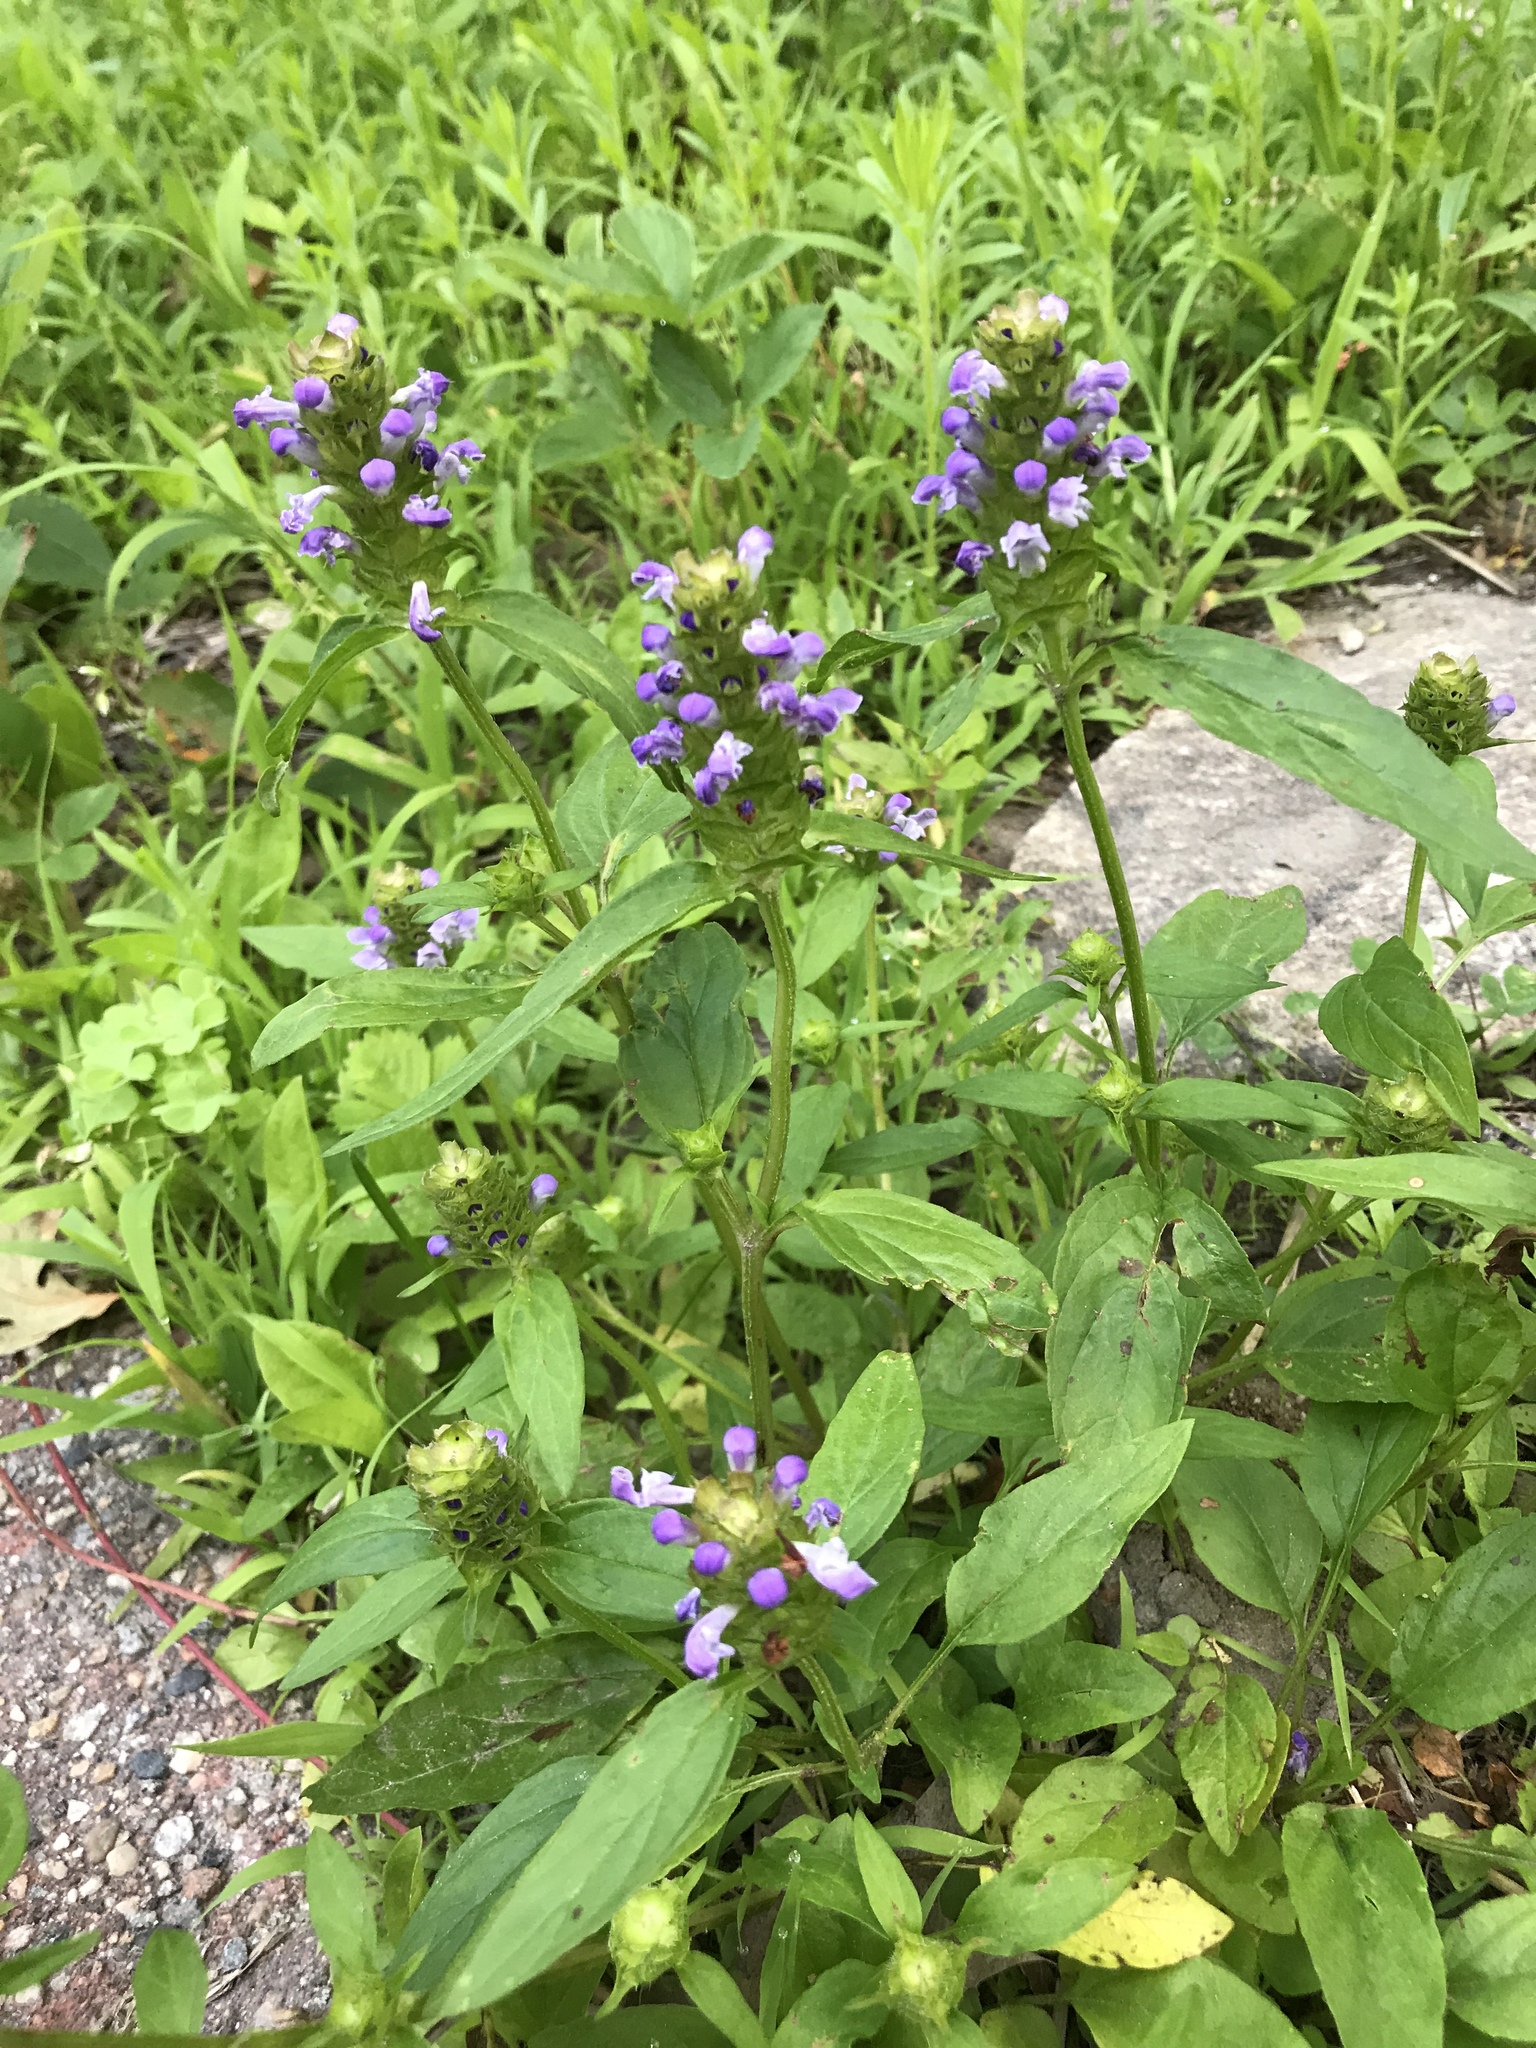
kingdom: Plantae
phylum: Tracheophyta
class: Magnoliopsida
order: Lamiales
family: Lamiaceae
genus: Prunella
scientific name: Prunella vulgaris
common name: Heal-all
